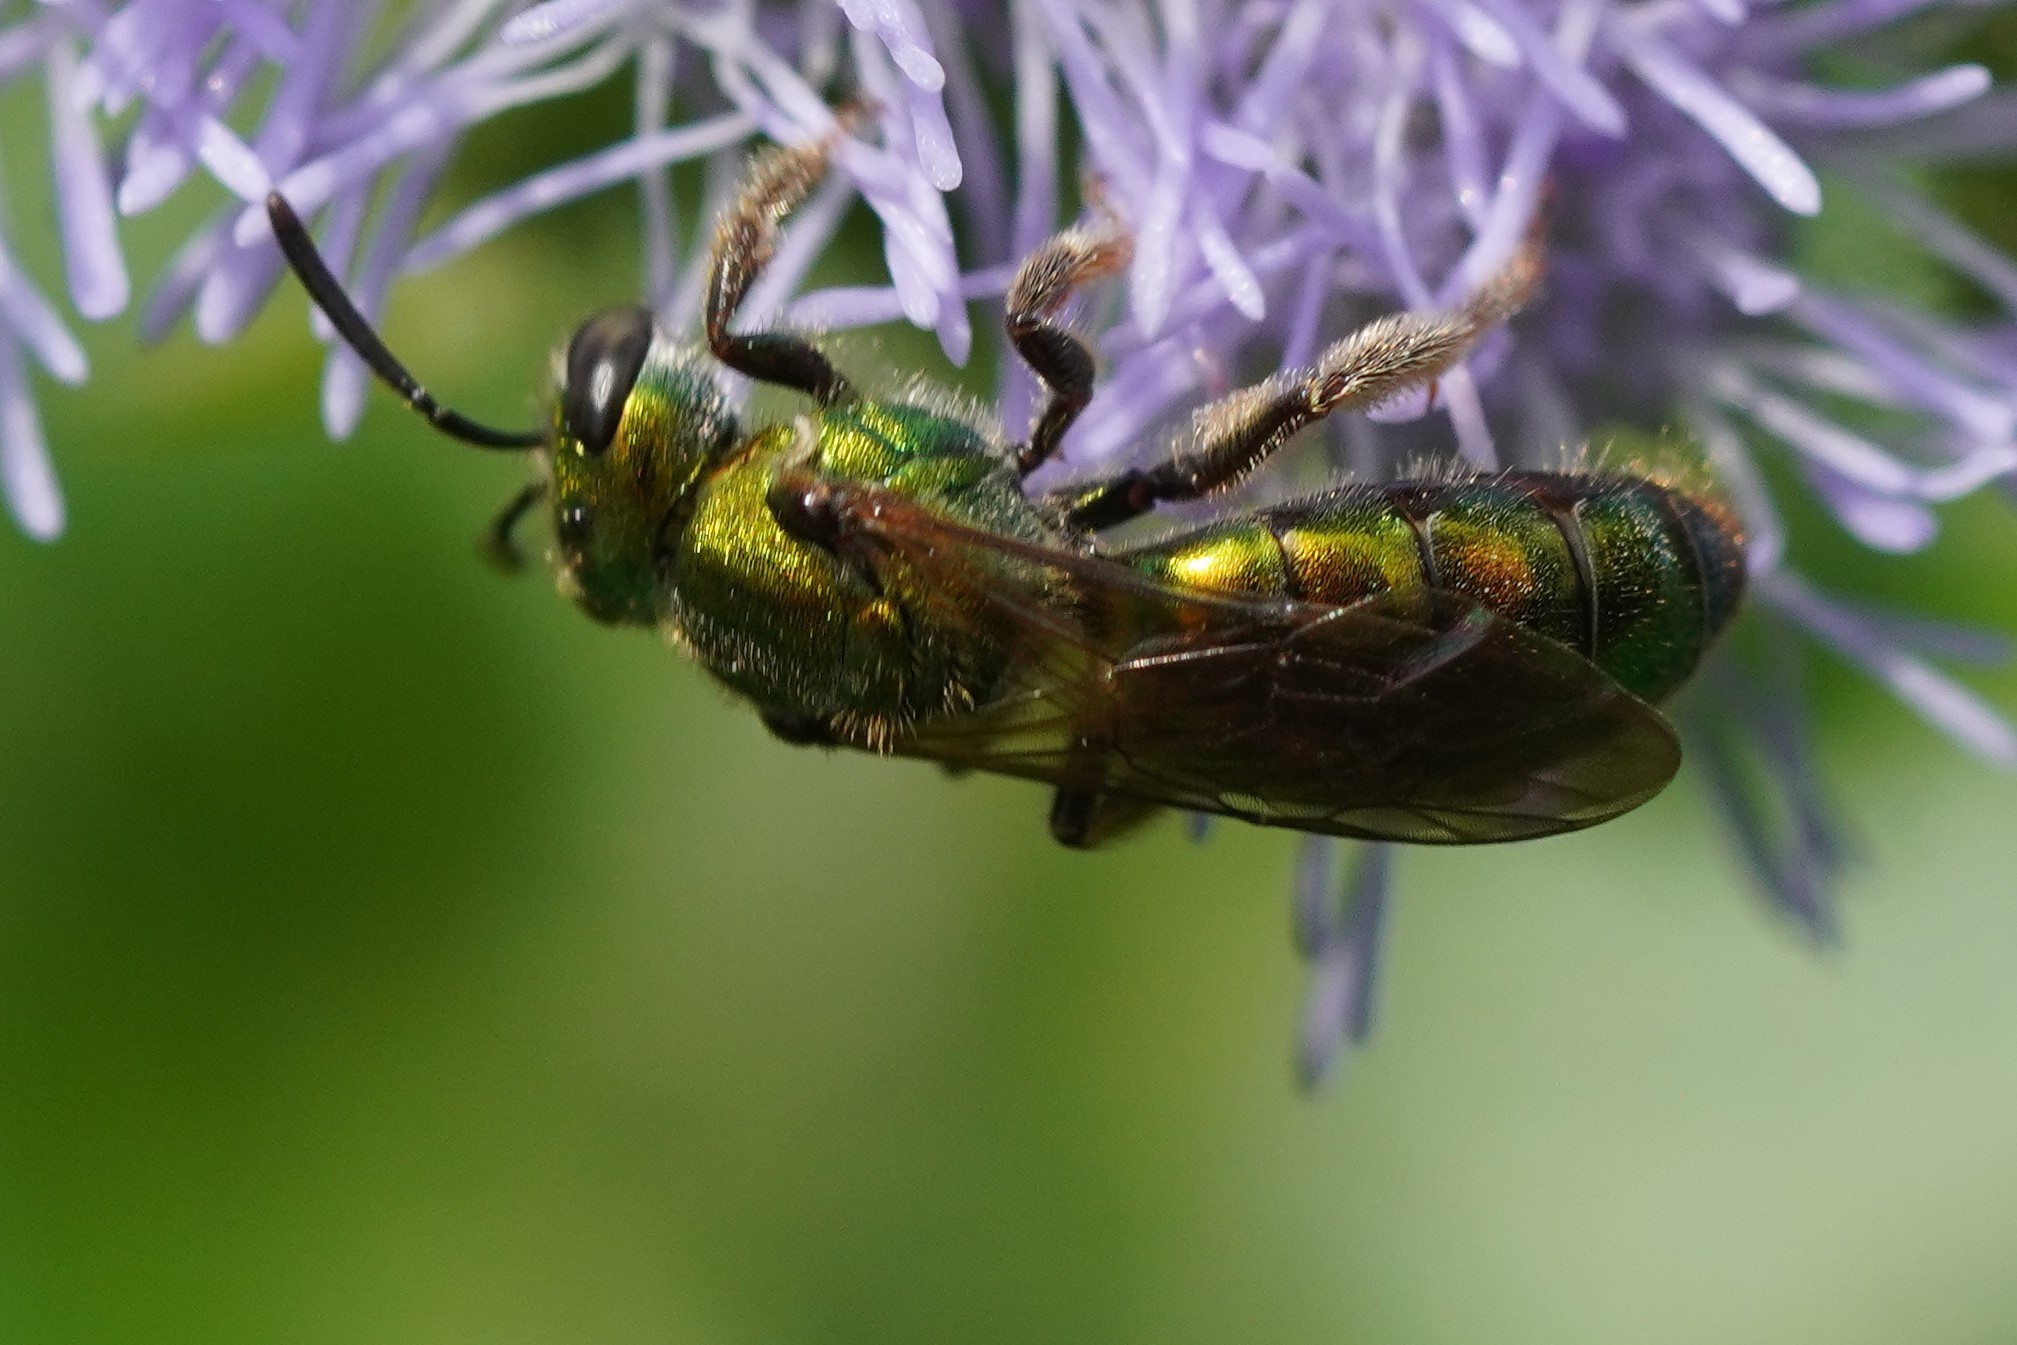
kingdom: Animalia
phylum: Arthropoda
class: Insecta
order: Hymenoptera
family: Halictidae
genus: Augochlora
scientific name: Augochlora pura
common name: Pure green sweat bee
